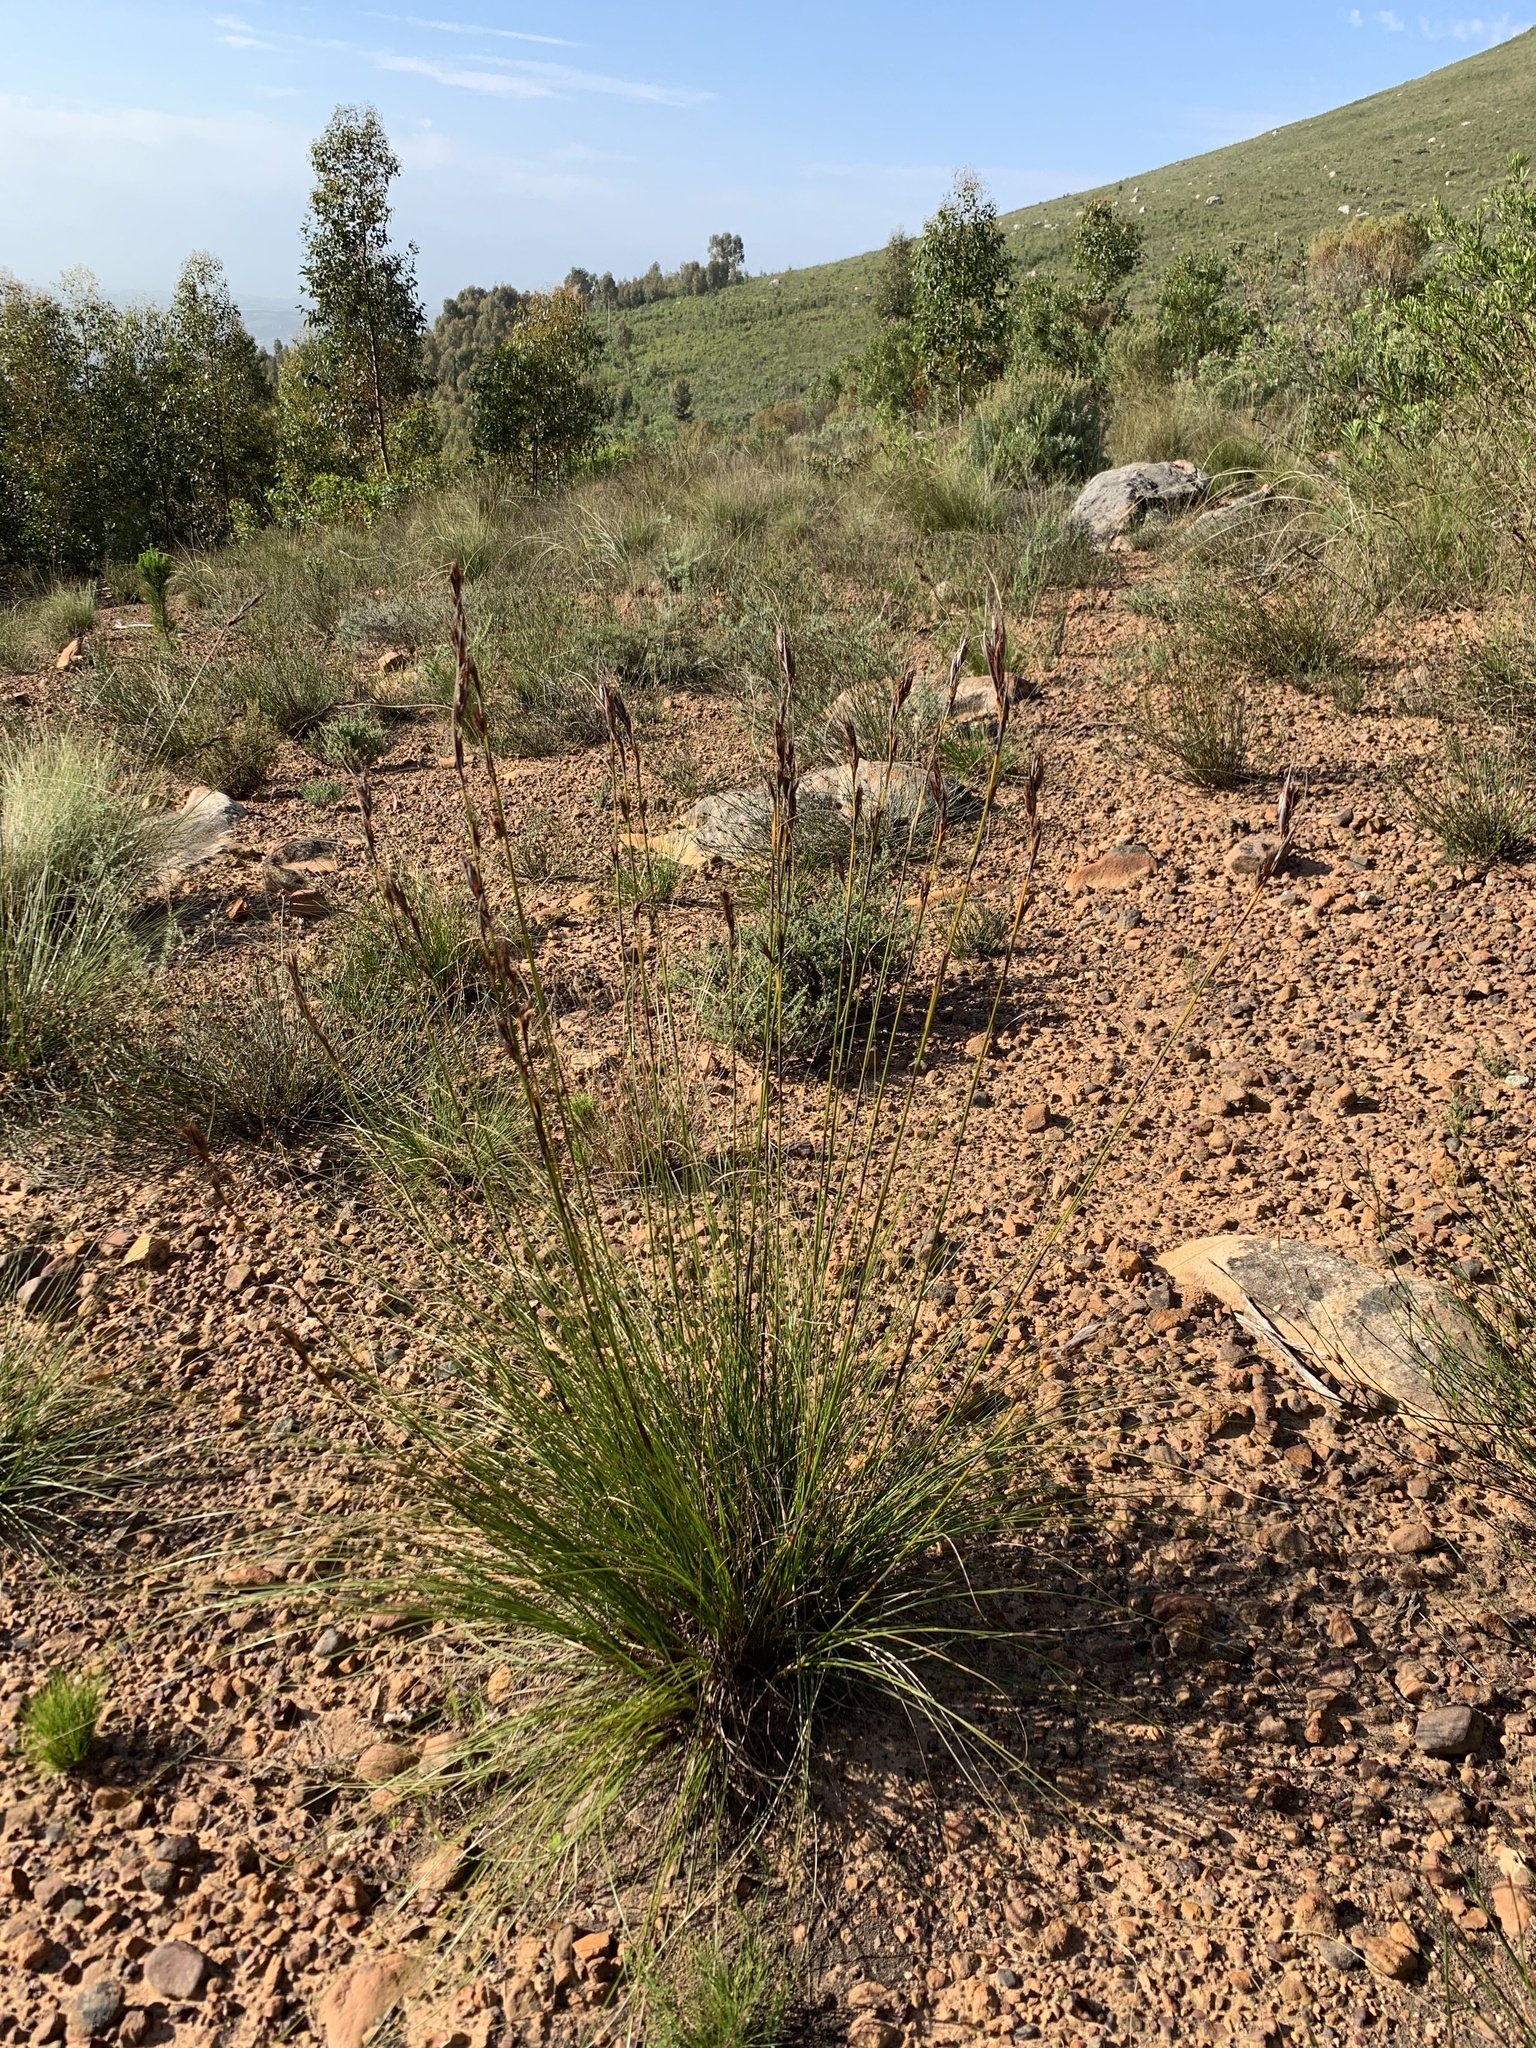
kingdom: Plantae
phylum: Tracheophyta
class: Liliopsida
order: Poales
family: Cyperaceae
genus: Tetraria
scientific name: Tetraria ustulata
